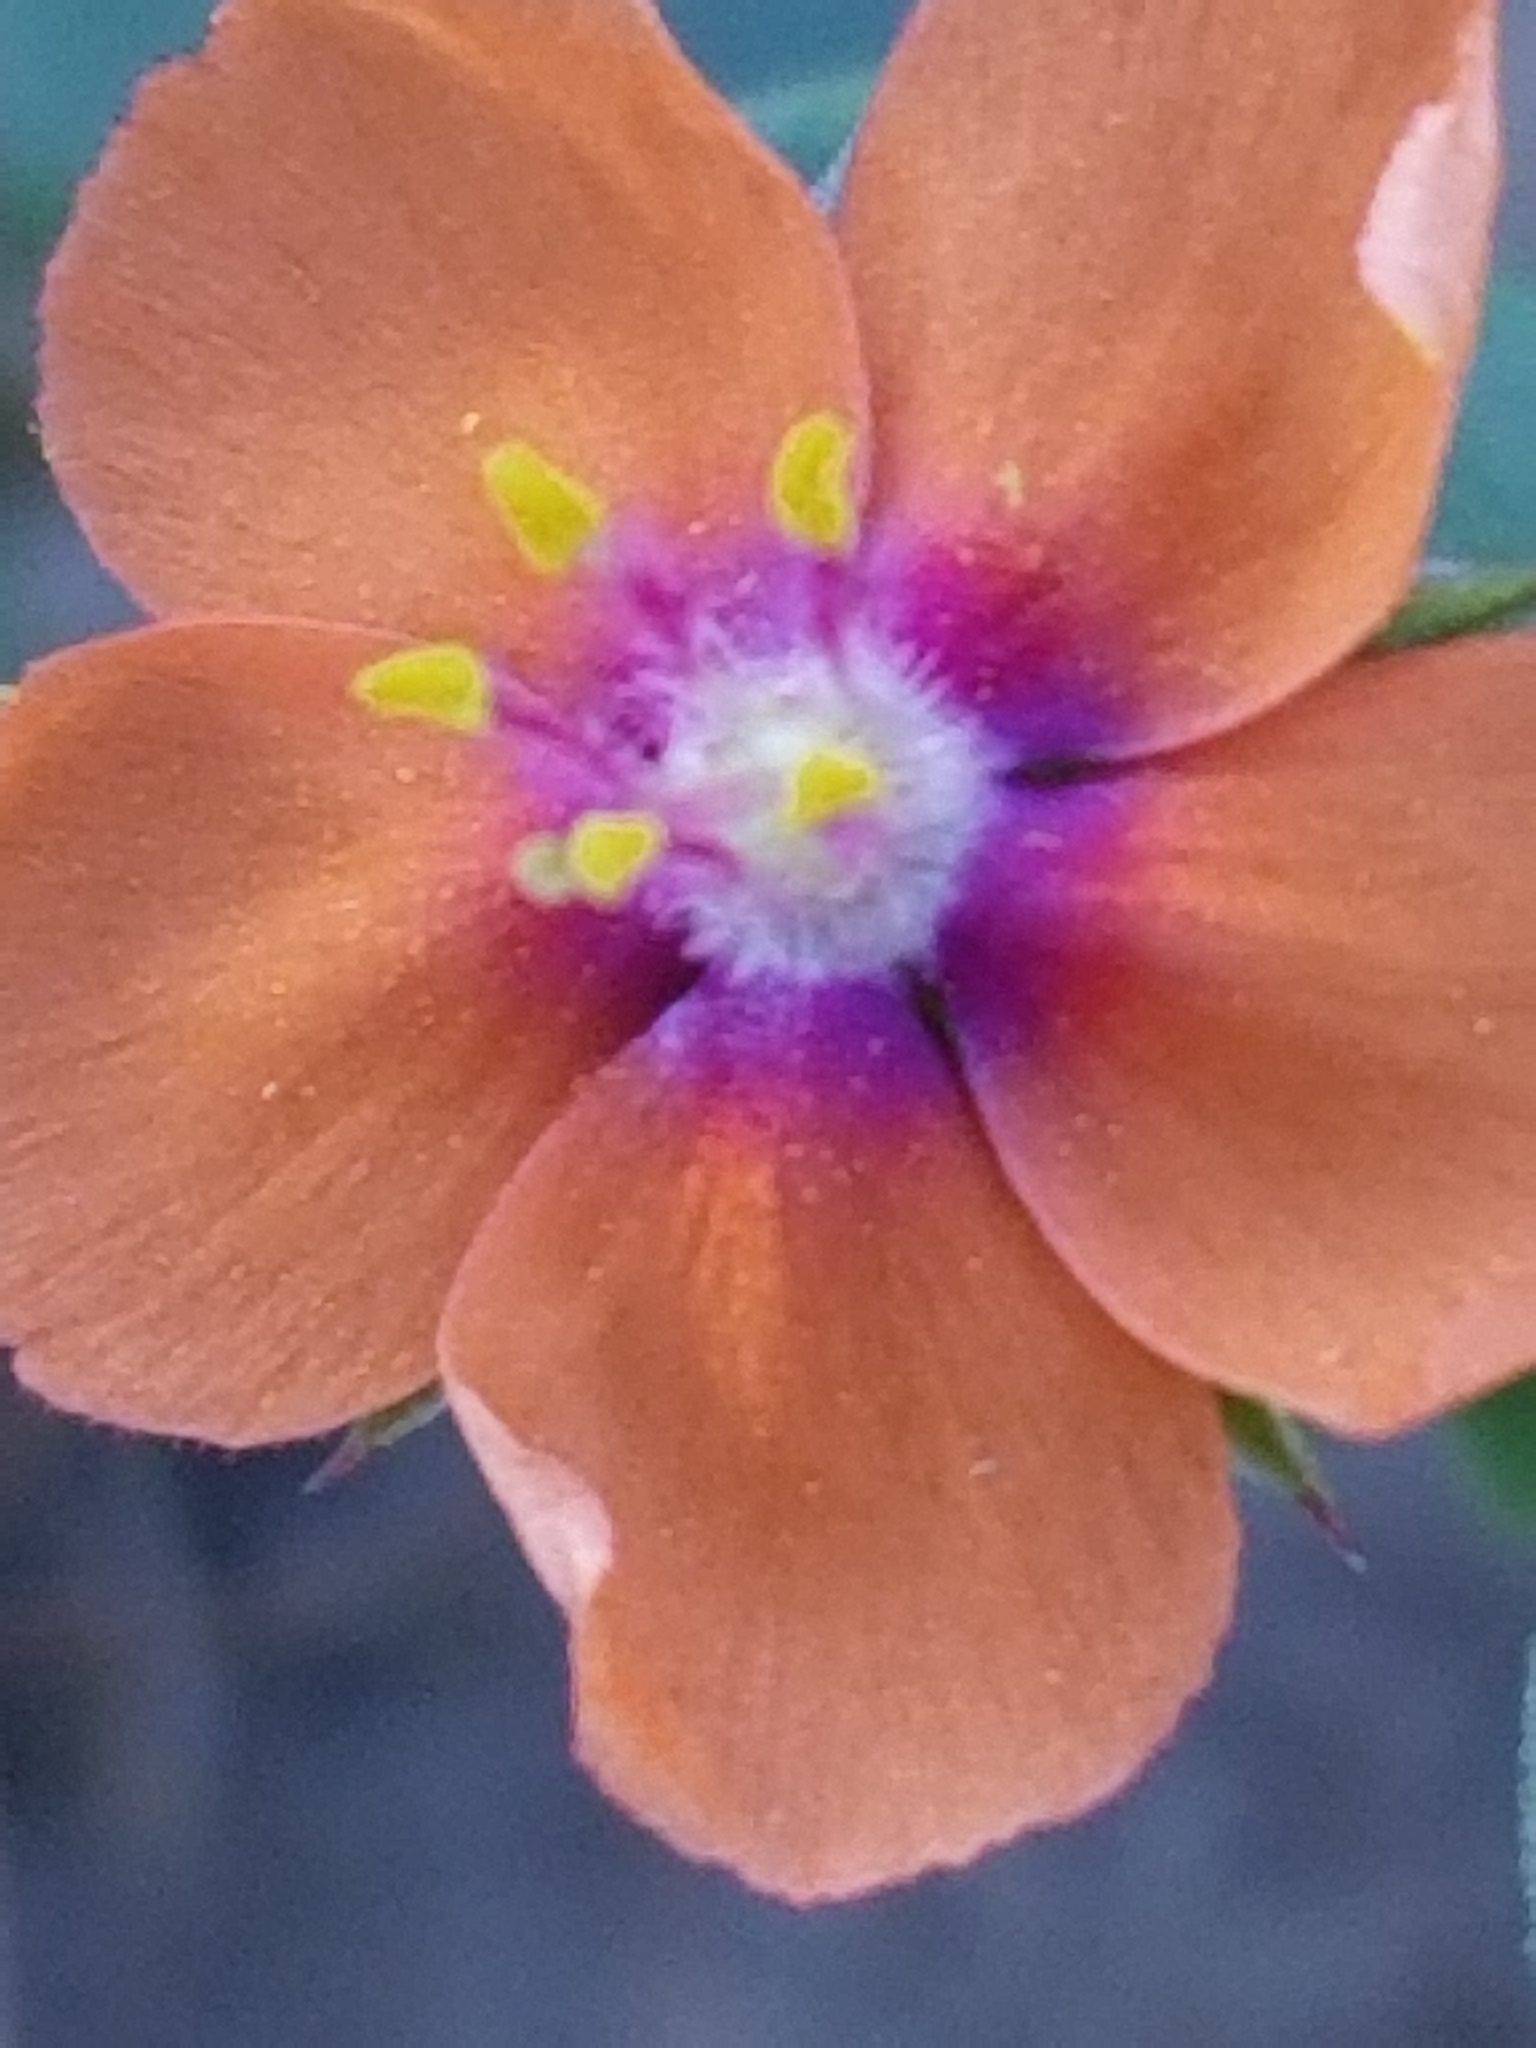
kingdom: Plantae
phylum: Tracheophyta
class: Magnoliopsida
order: Ericales
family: Primulaceae
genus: Lysimachia
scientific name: Lysimachia arvensis
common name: Scarlet pimpernel
